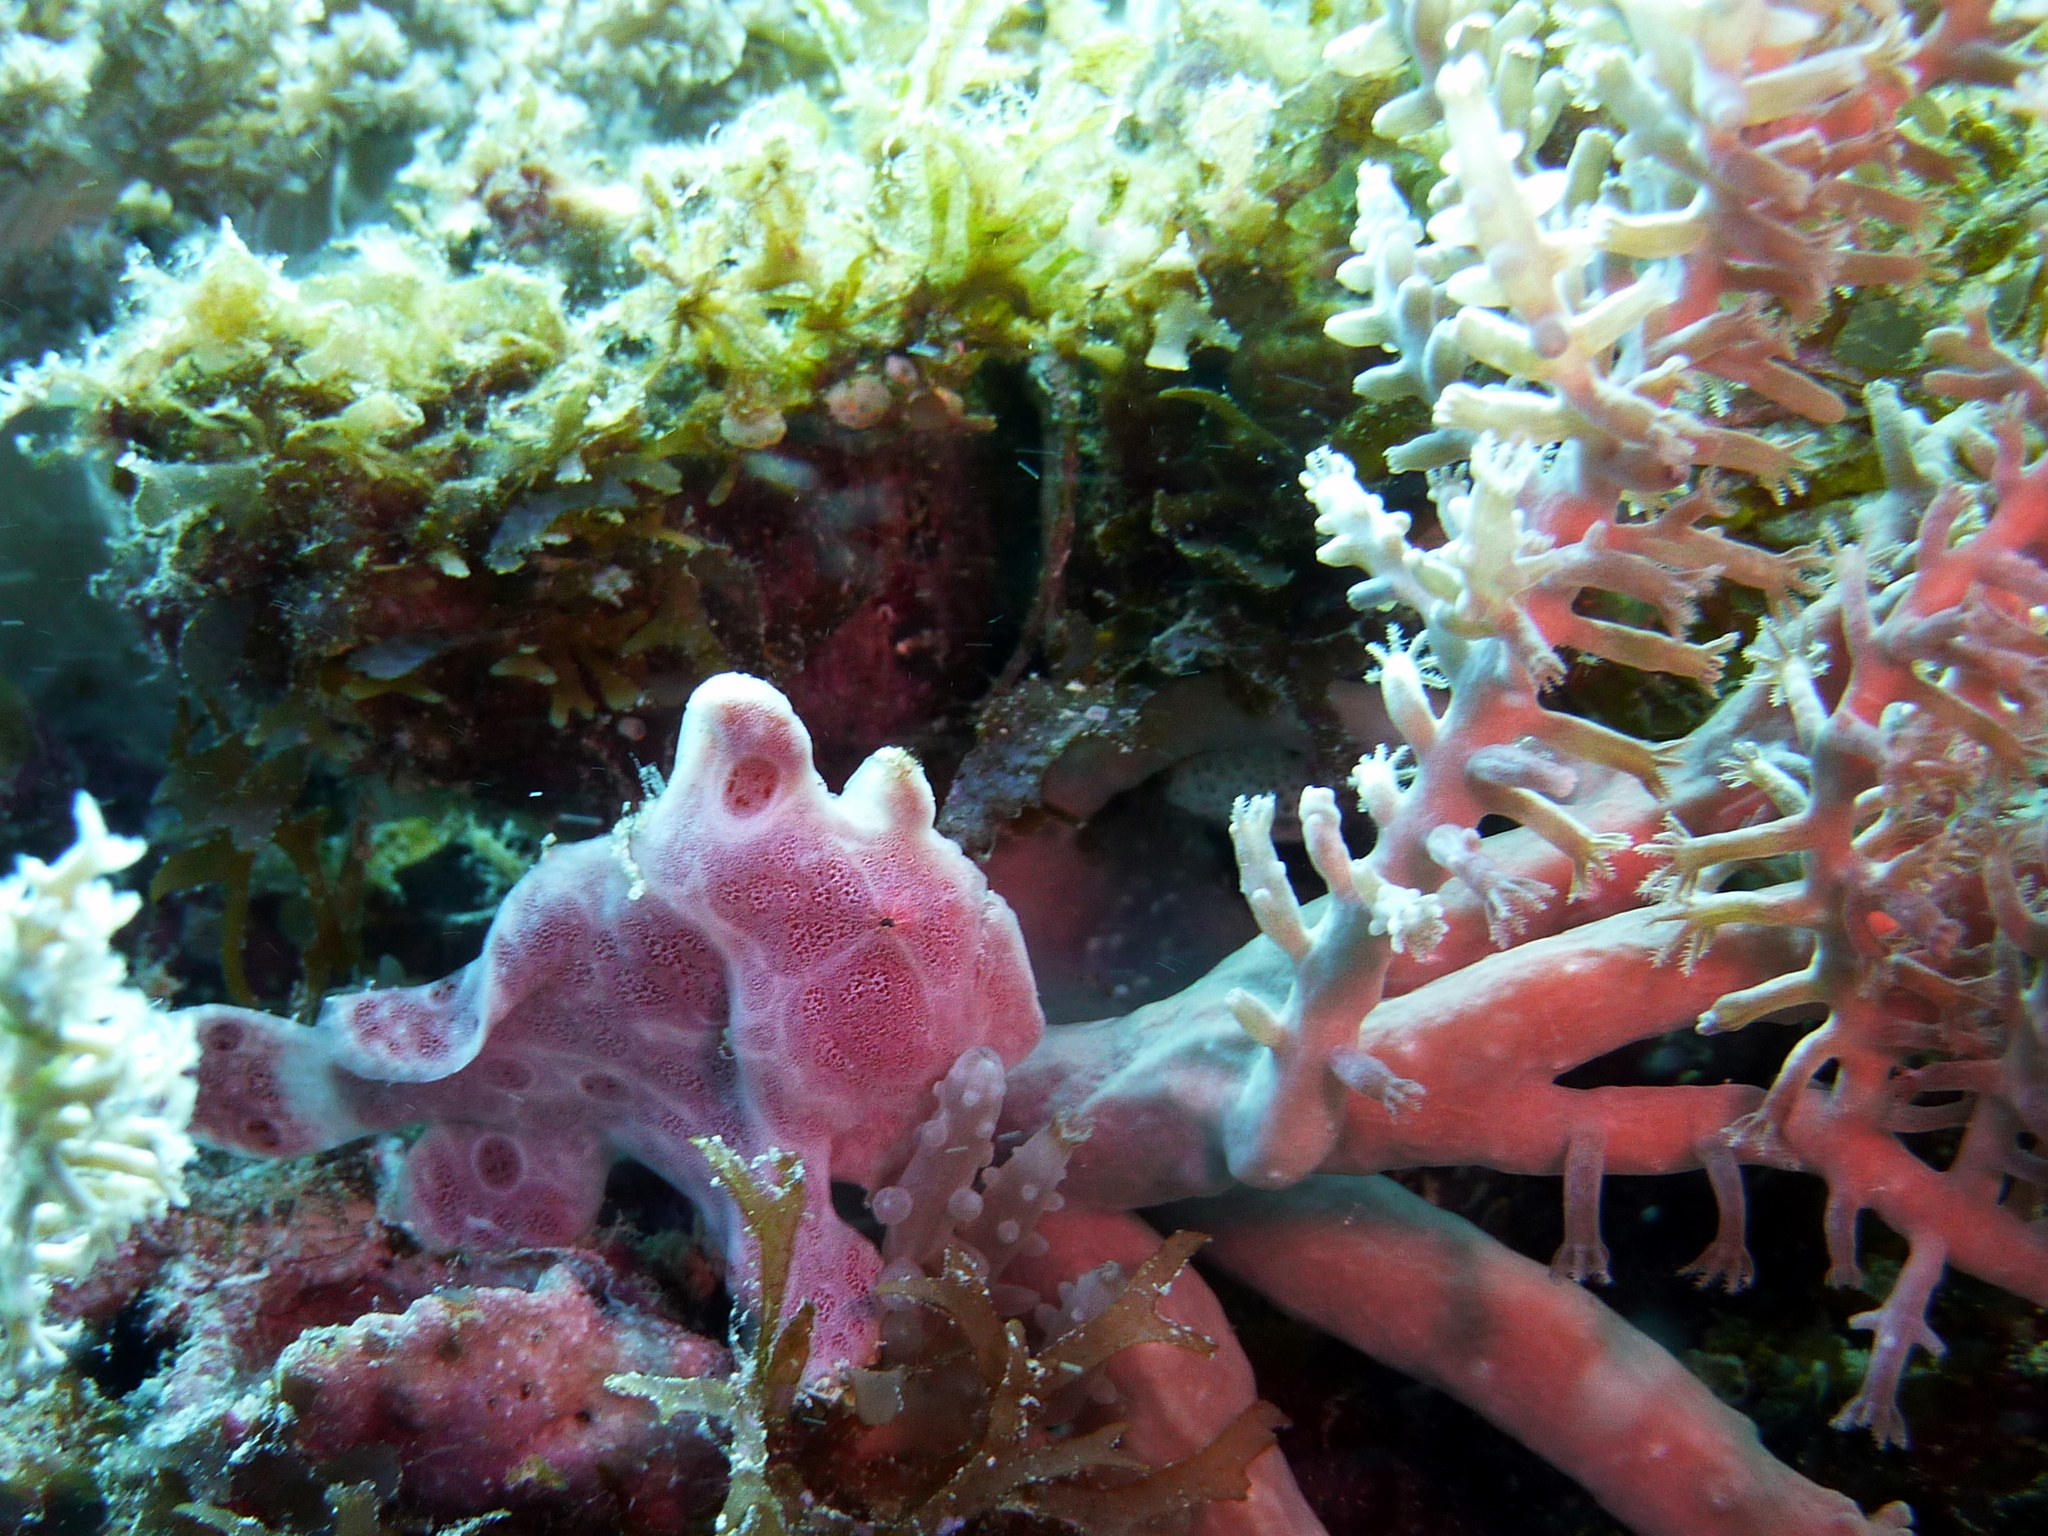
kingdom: Animalia
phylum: Chordata
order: Lophiiformes
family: Antennariidae
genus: Antennarius
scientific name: Antennarius pictus
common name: Painted frogfish
